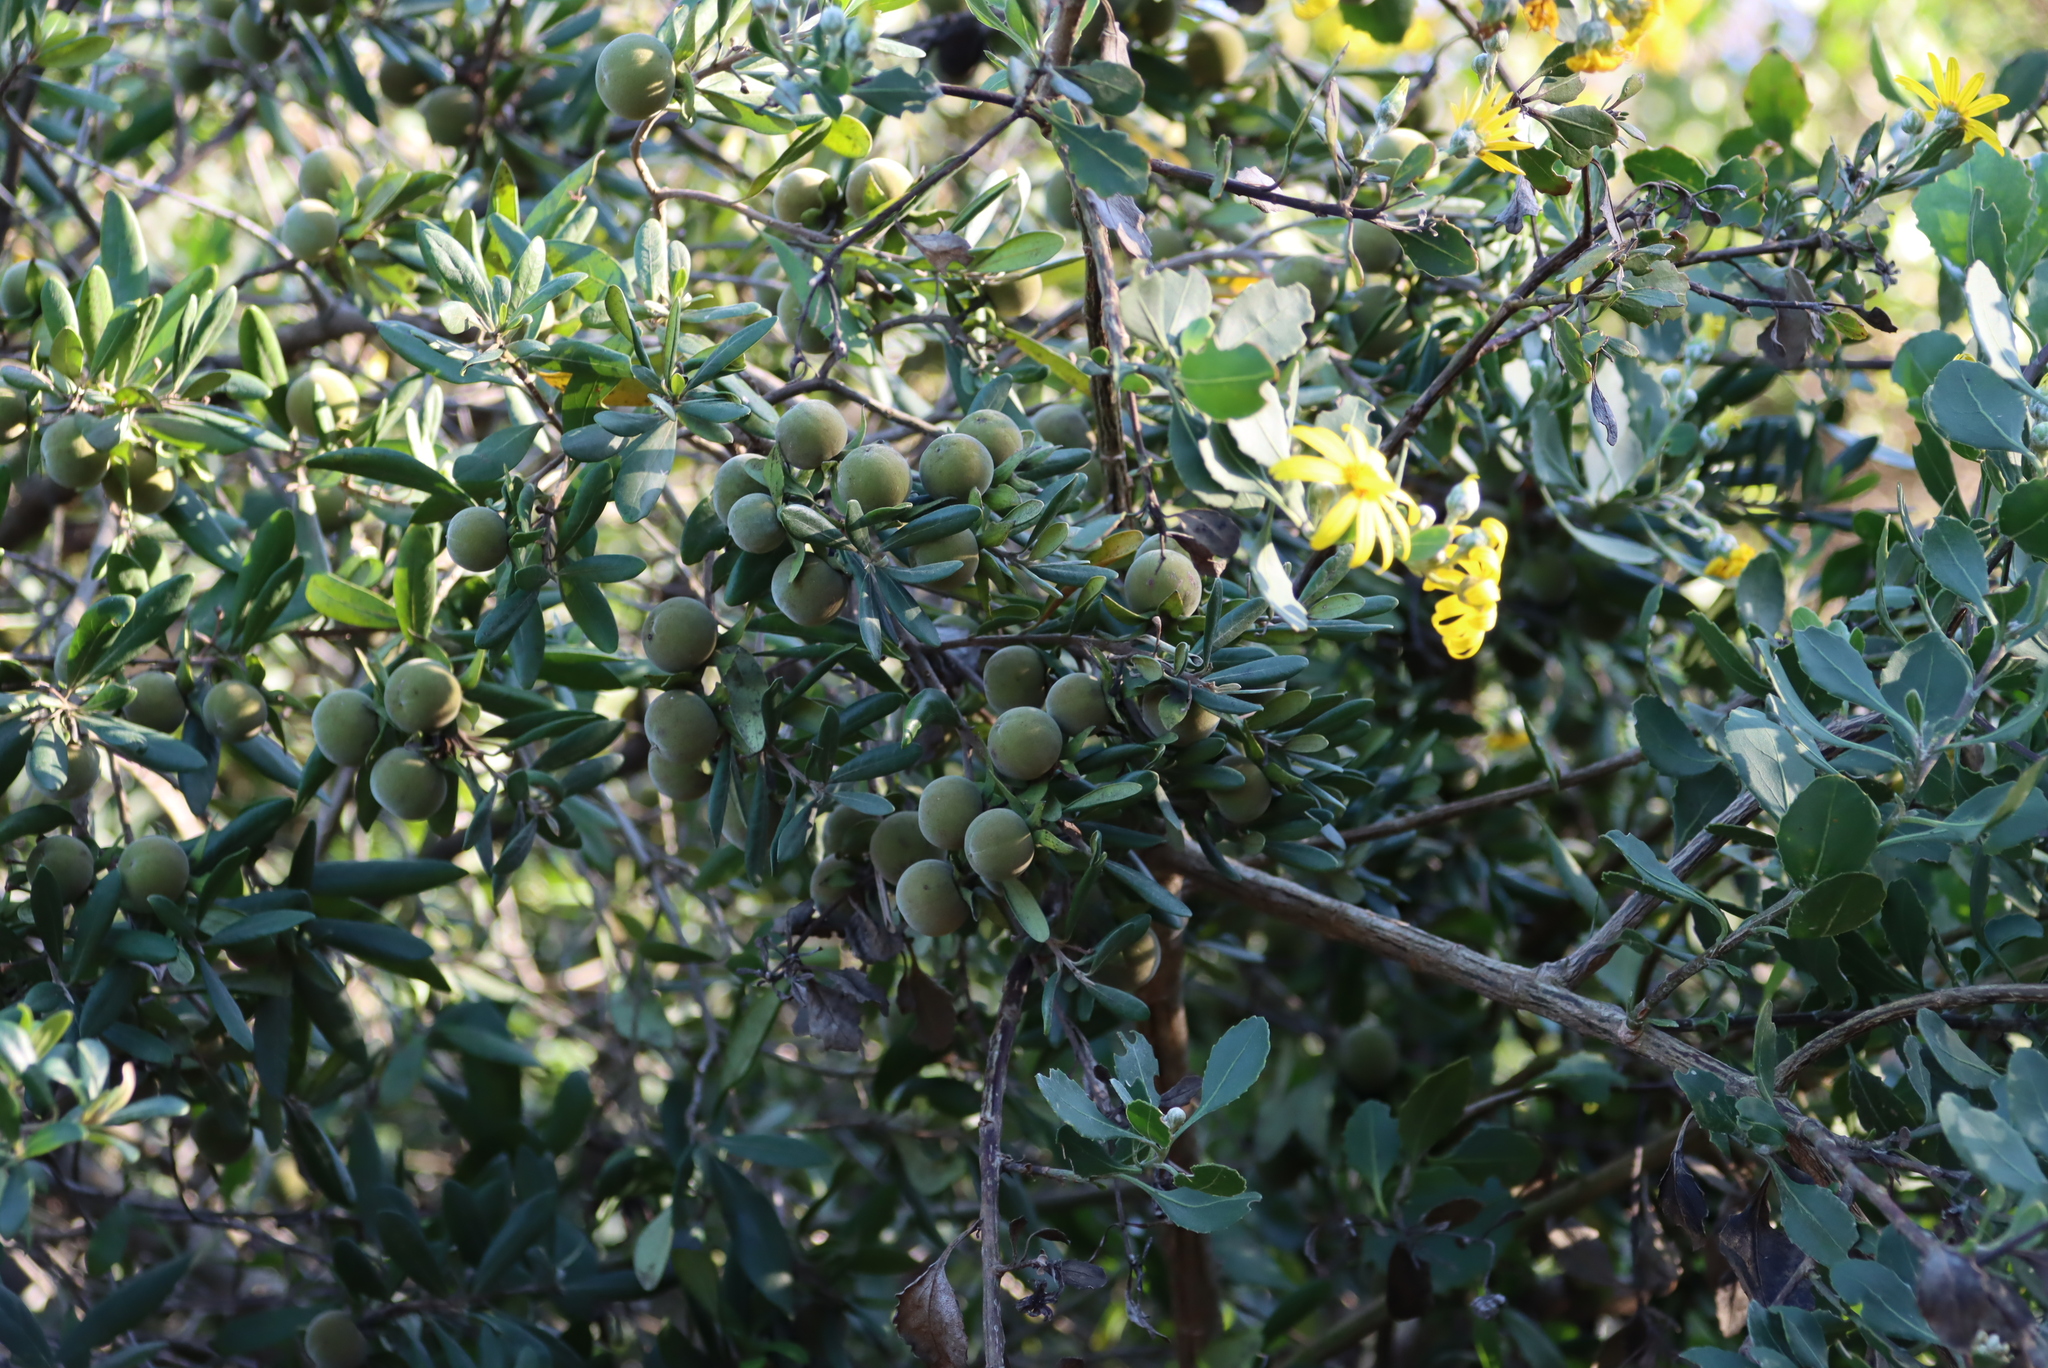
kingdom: Plantae
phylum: Tracheophyta
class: Magnoliopsida
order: Ericales
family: Ebenaceae
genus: Diospyros
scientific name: Diospyros dichrophylla
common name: Common star-apple
